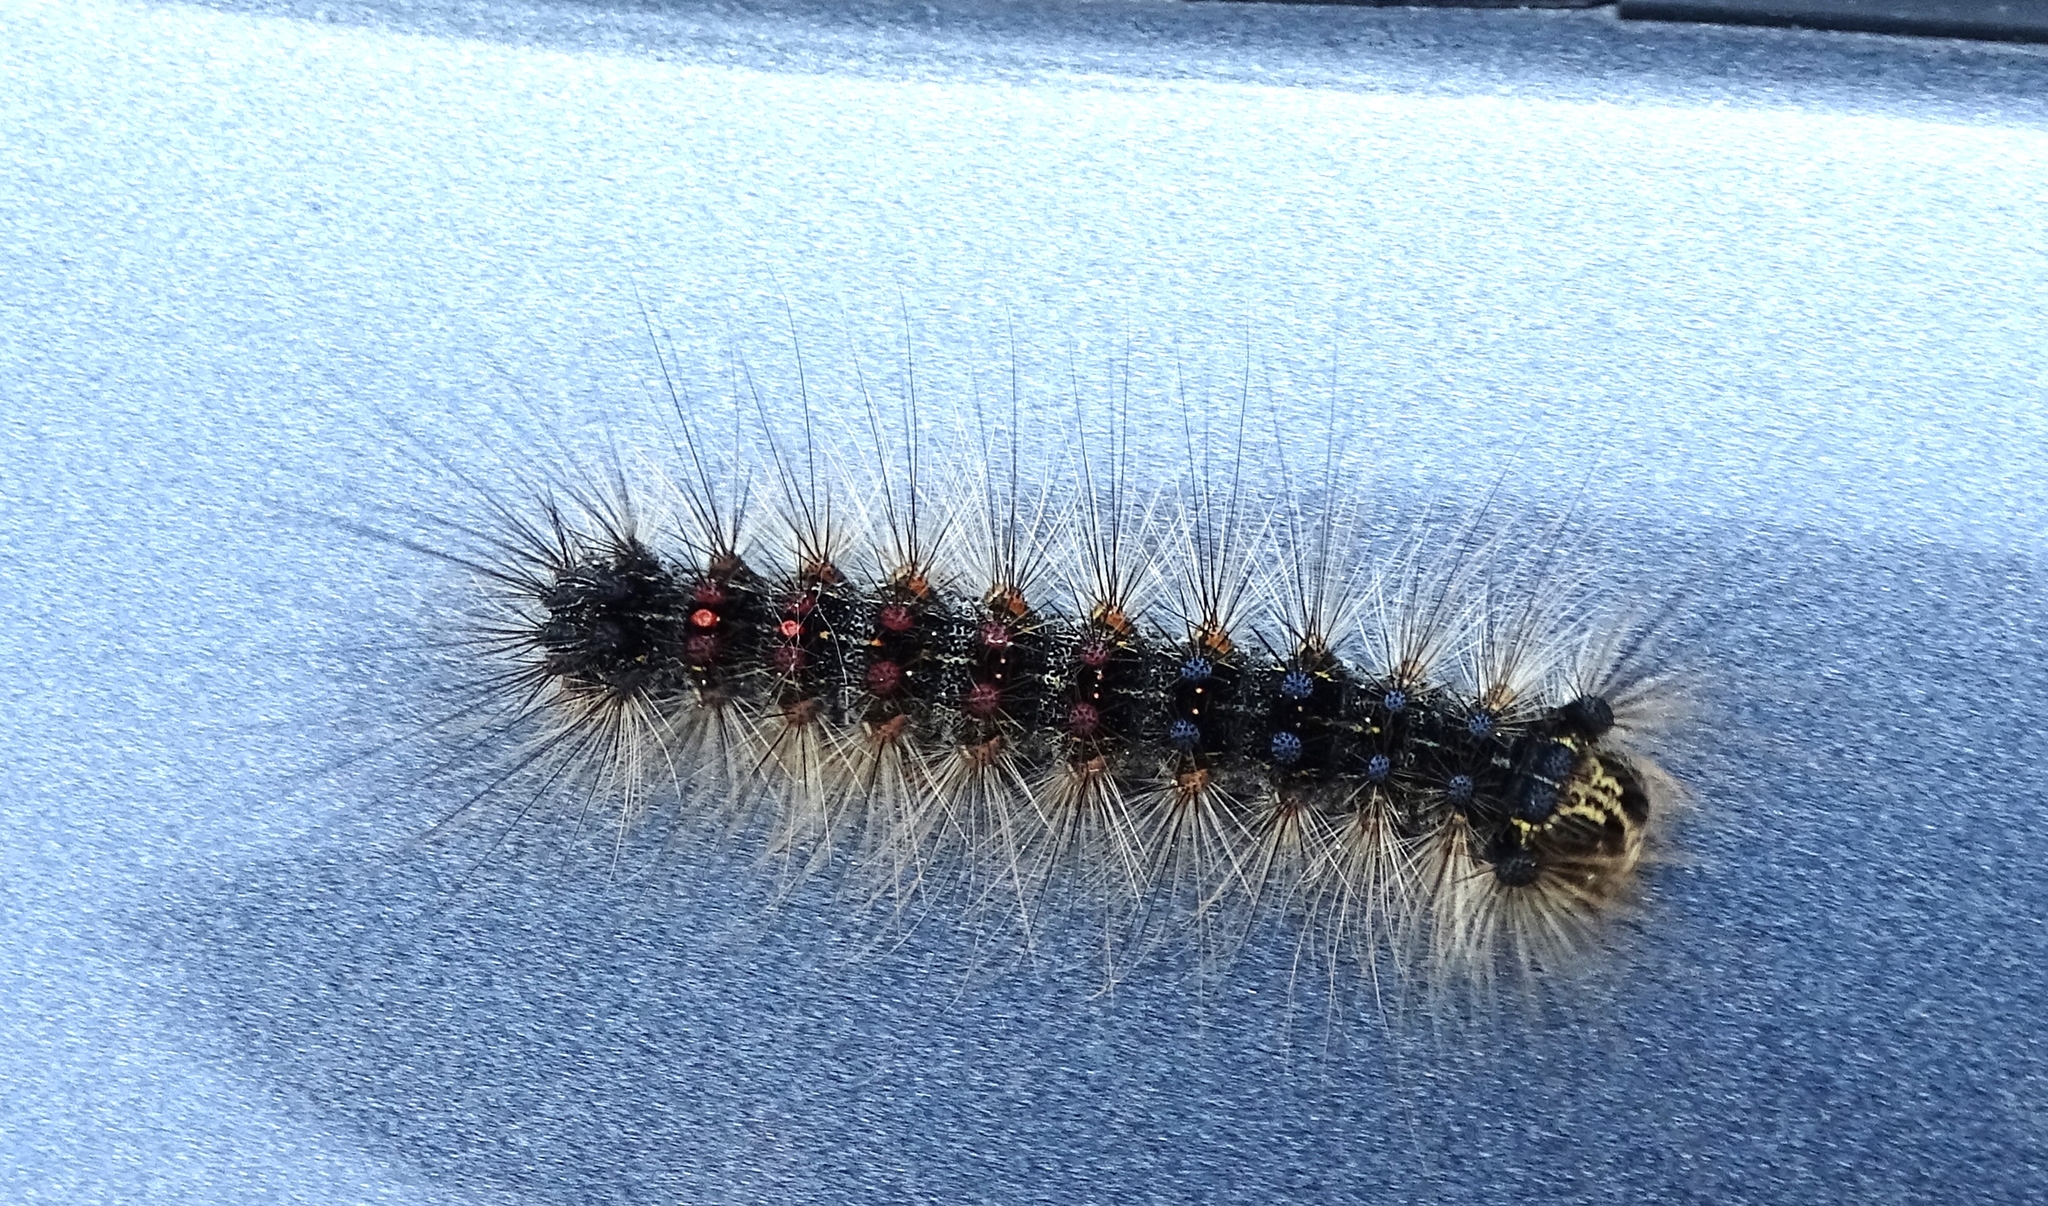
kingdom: Animalia
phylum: Arthropoda
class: Insecta
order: Lepidoptera
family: Erebidae
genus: Lymantria
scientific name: Lymantria dispar
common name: Gypsy moth
